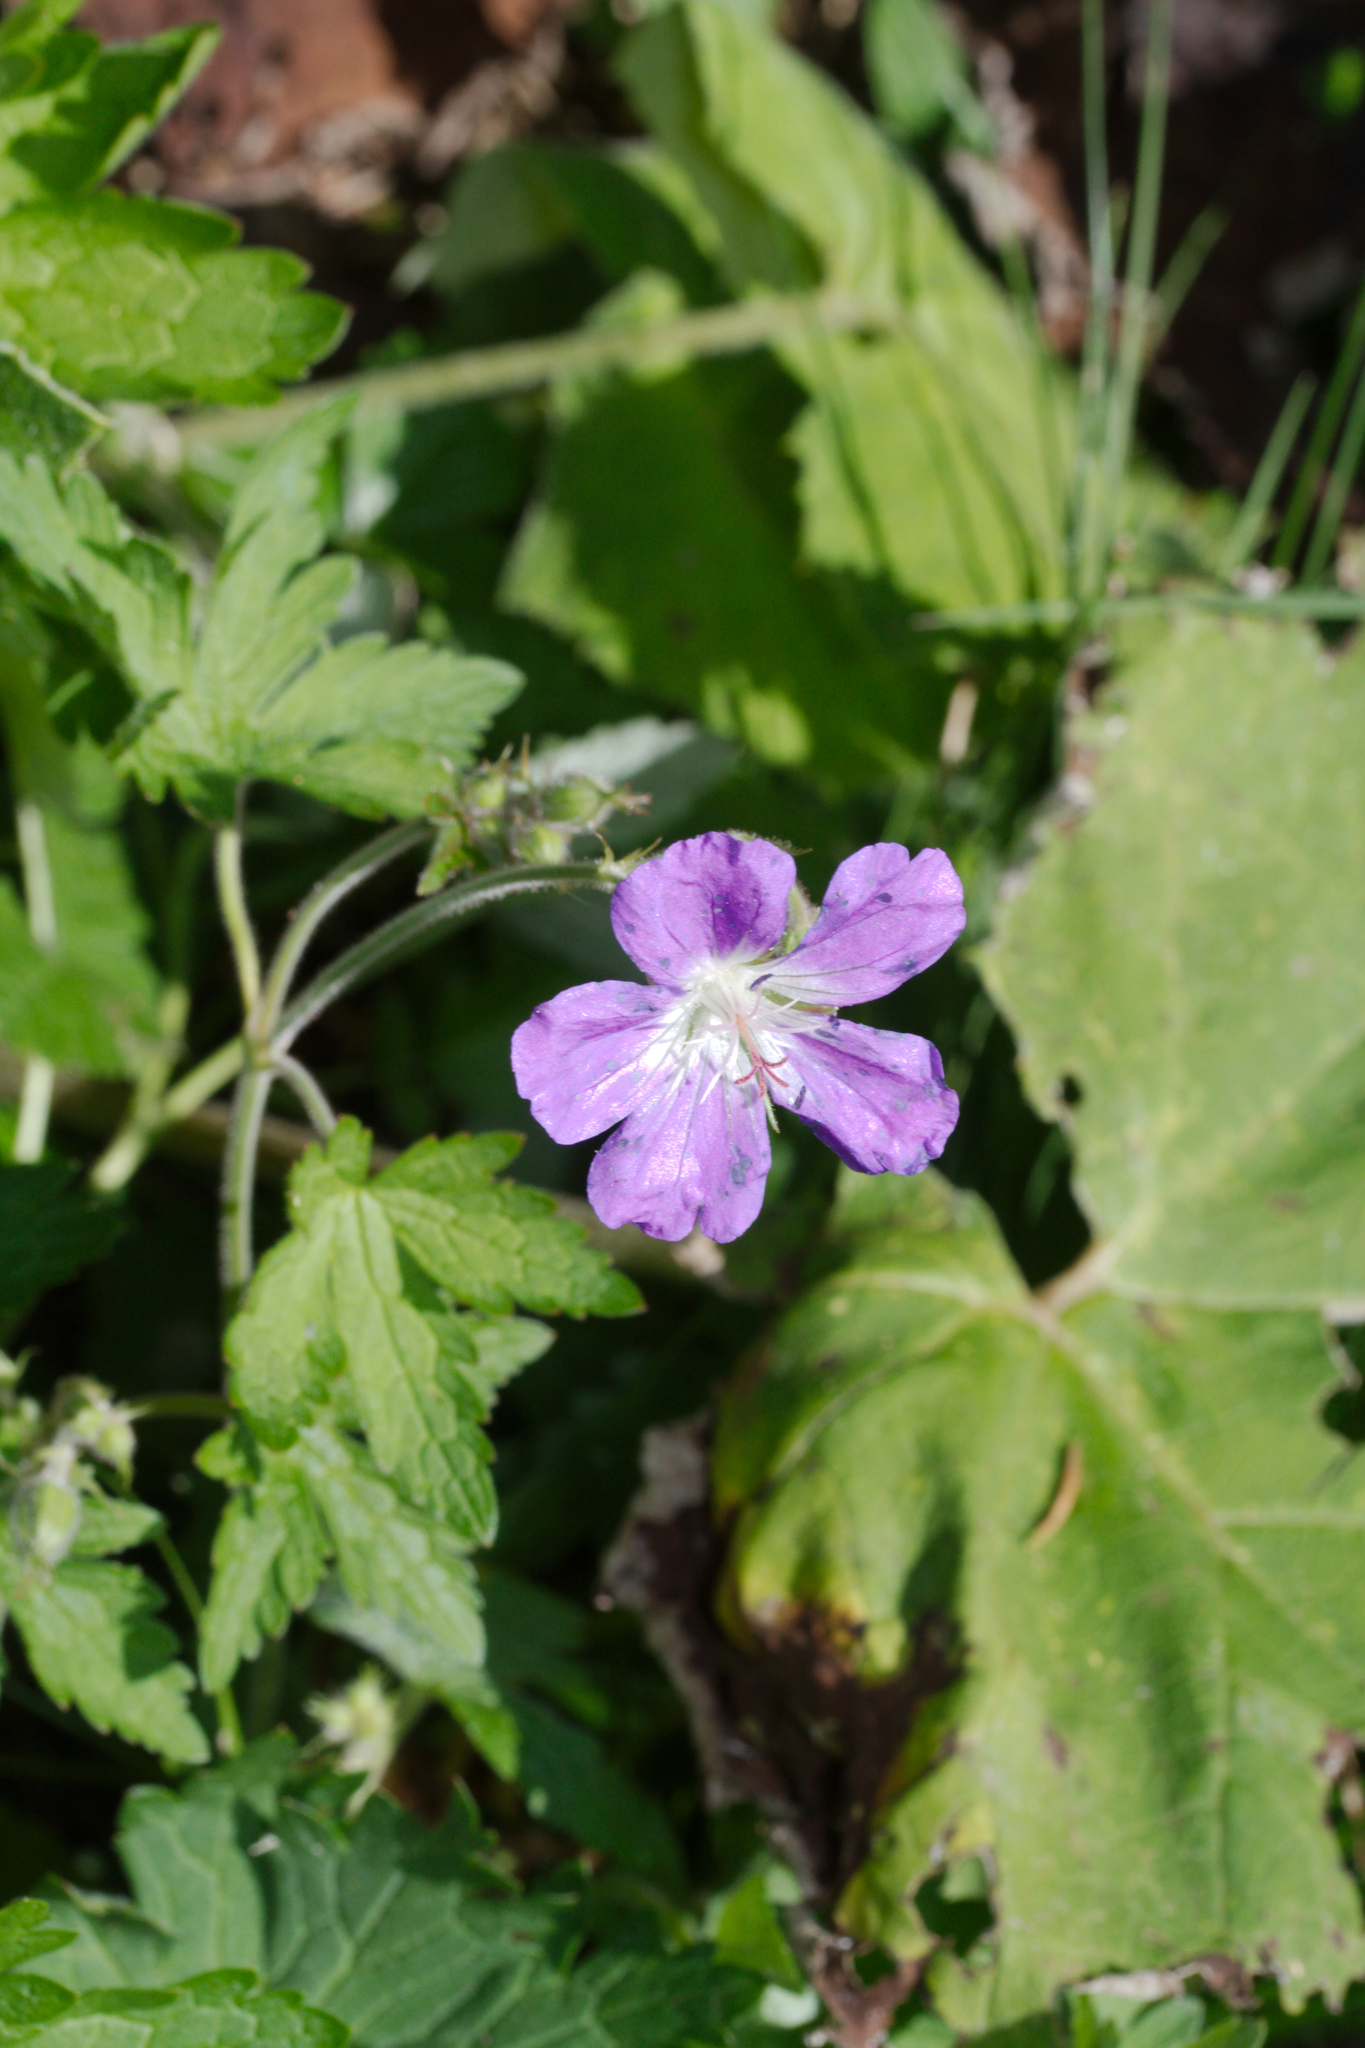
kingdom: Plantae
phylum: Tracheophyta
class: Magnoliopsida
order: Geraniales
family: Geraniaceae
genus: Geranium
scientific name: Geranium sylvaticum
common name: Wood crane's-bill
